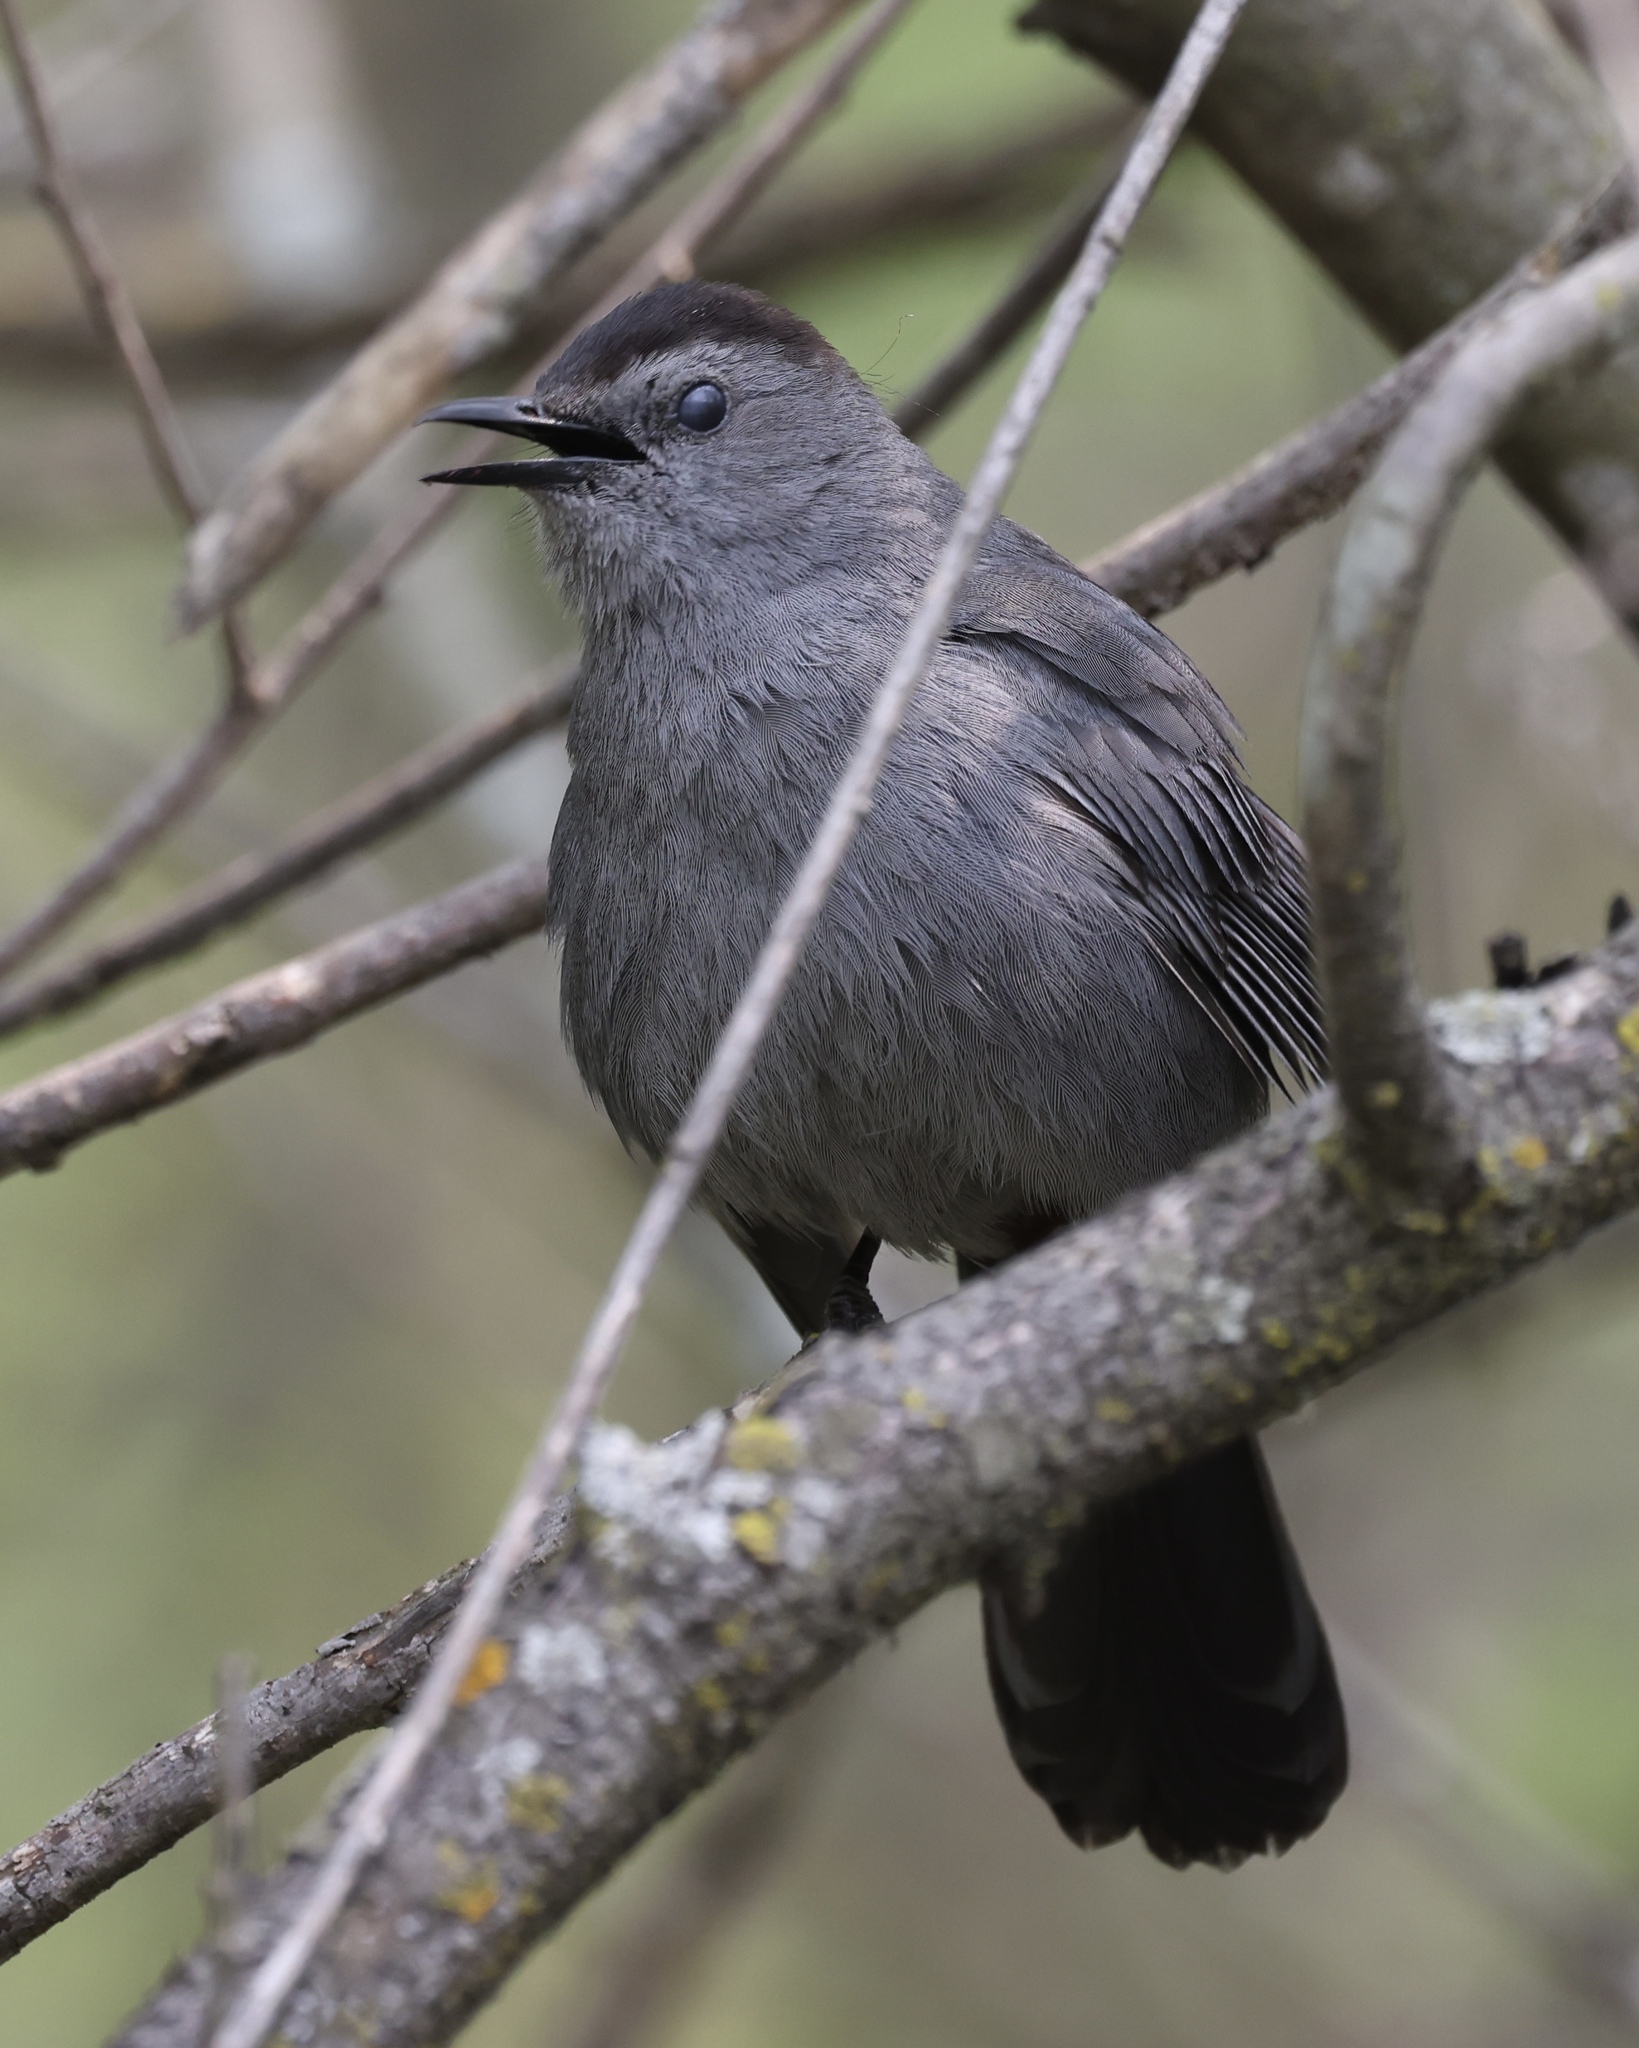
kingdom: Animalia
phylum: Chordata
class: Aves
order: Passeriformes
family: Mimidae
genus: Dumetella
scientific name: Dumetella carolinensis
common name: Gray catbird
